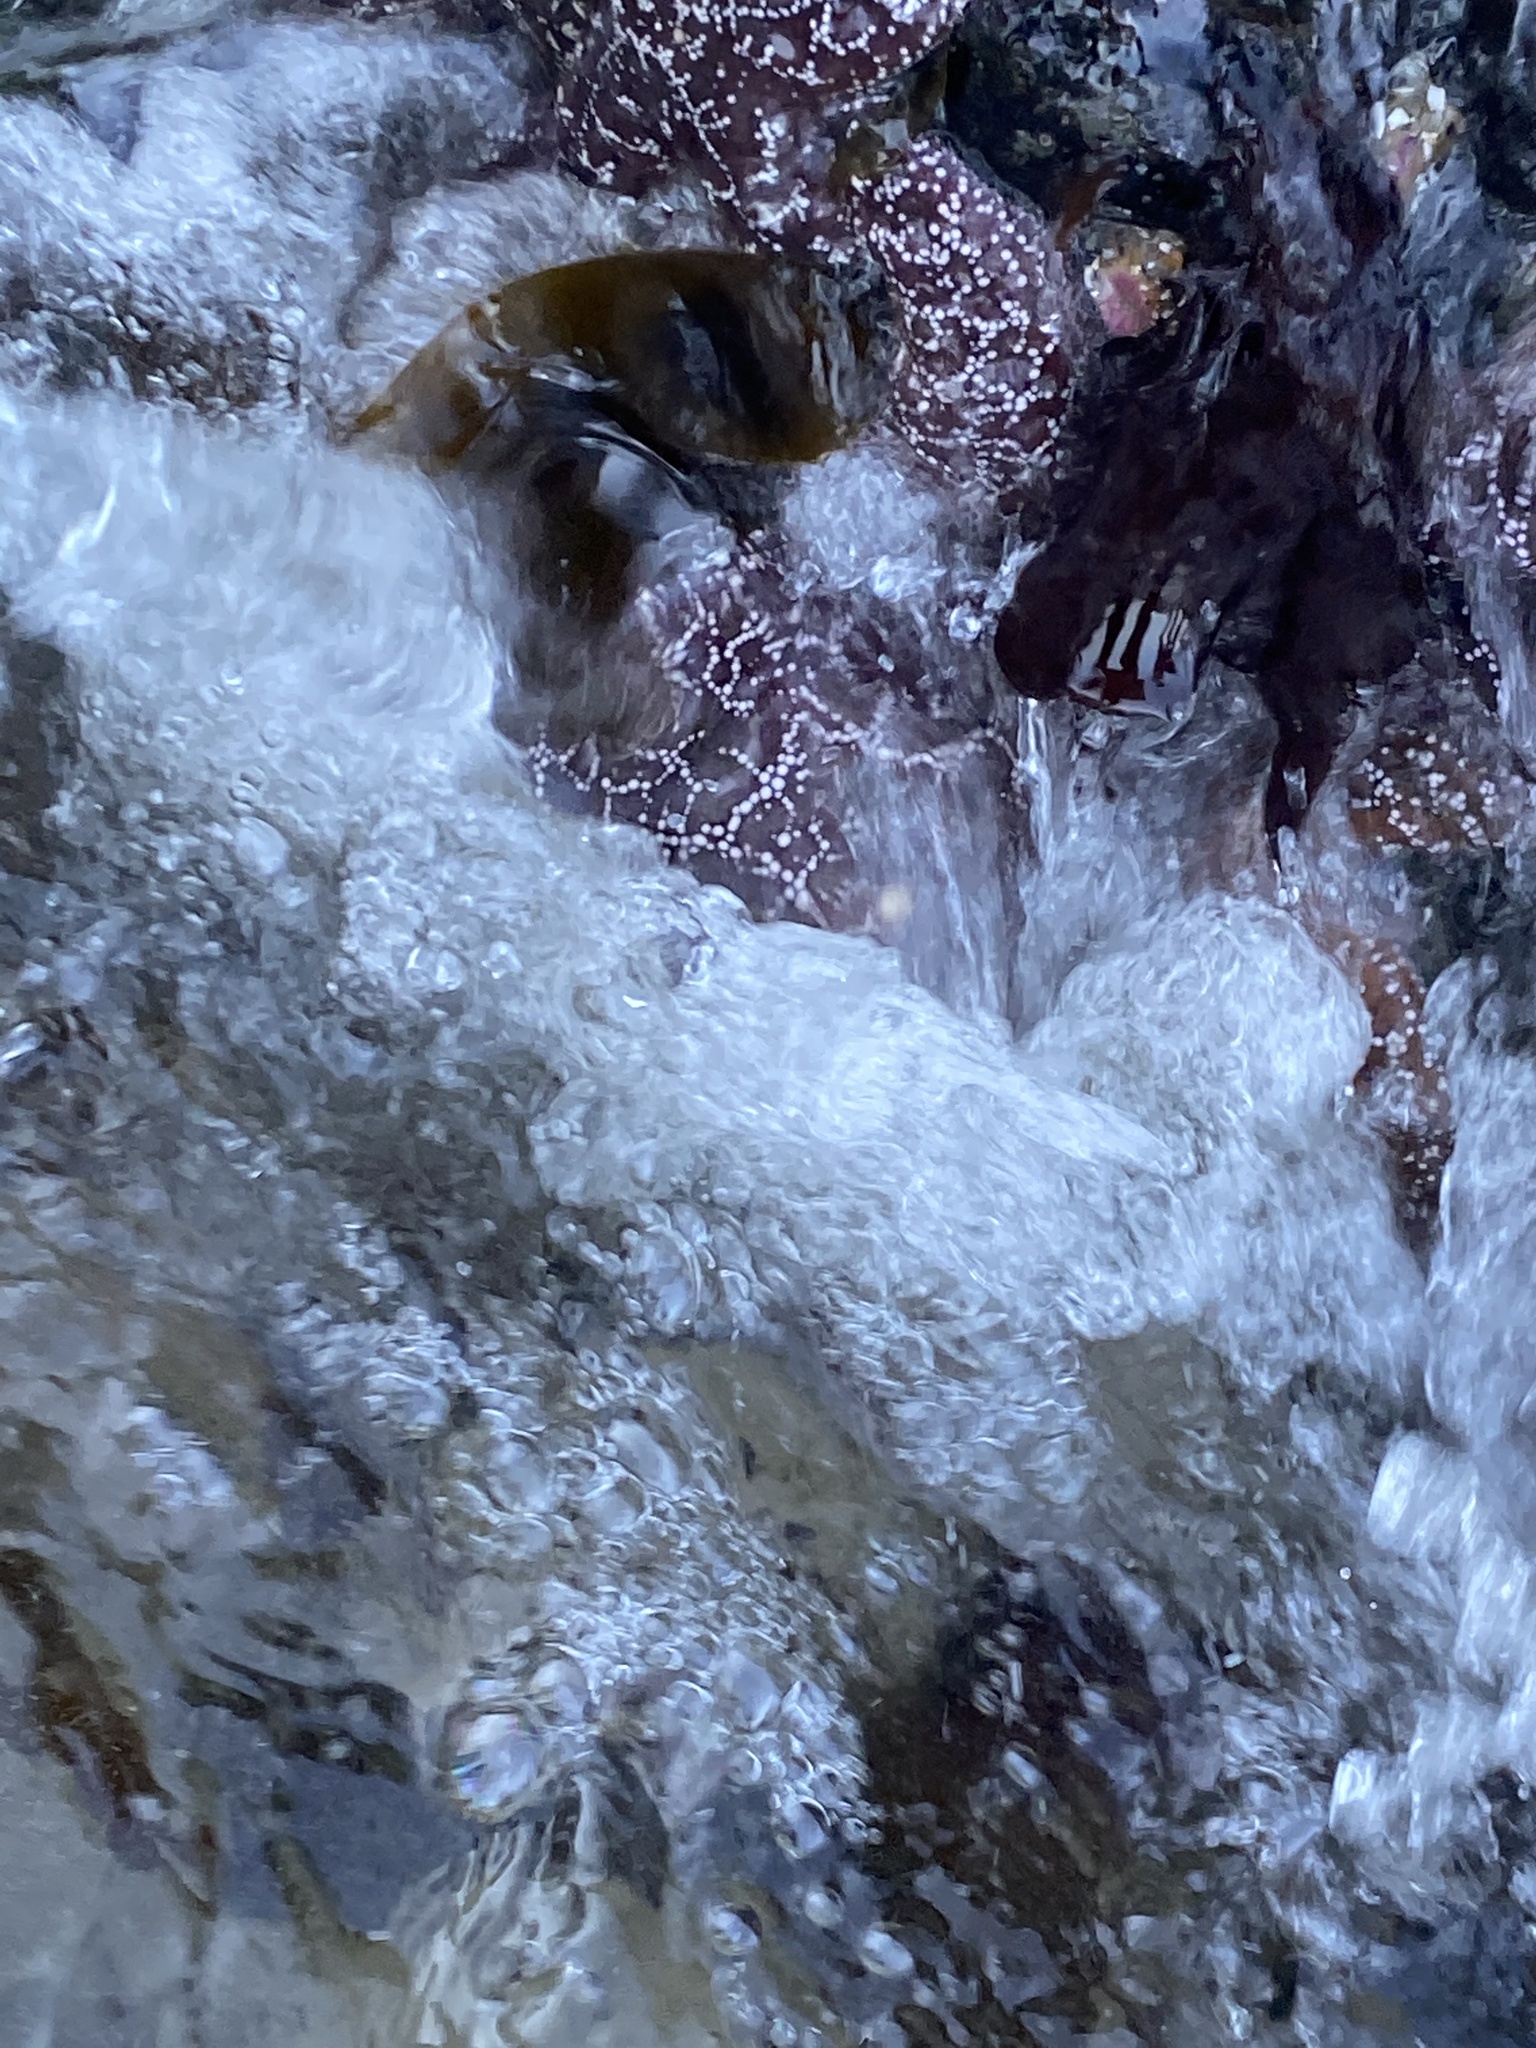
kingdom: Animalia
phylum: Echinodermata
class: Asteroidea
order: Forcipulatida
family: Asteriidae
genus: Pisaster
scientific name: Pisaster ochraceus
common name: Ochre stars
